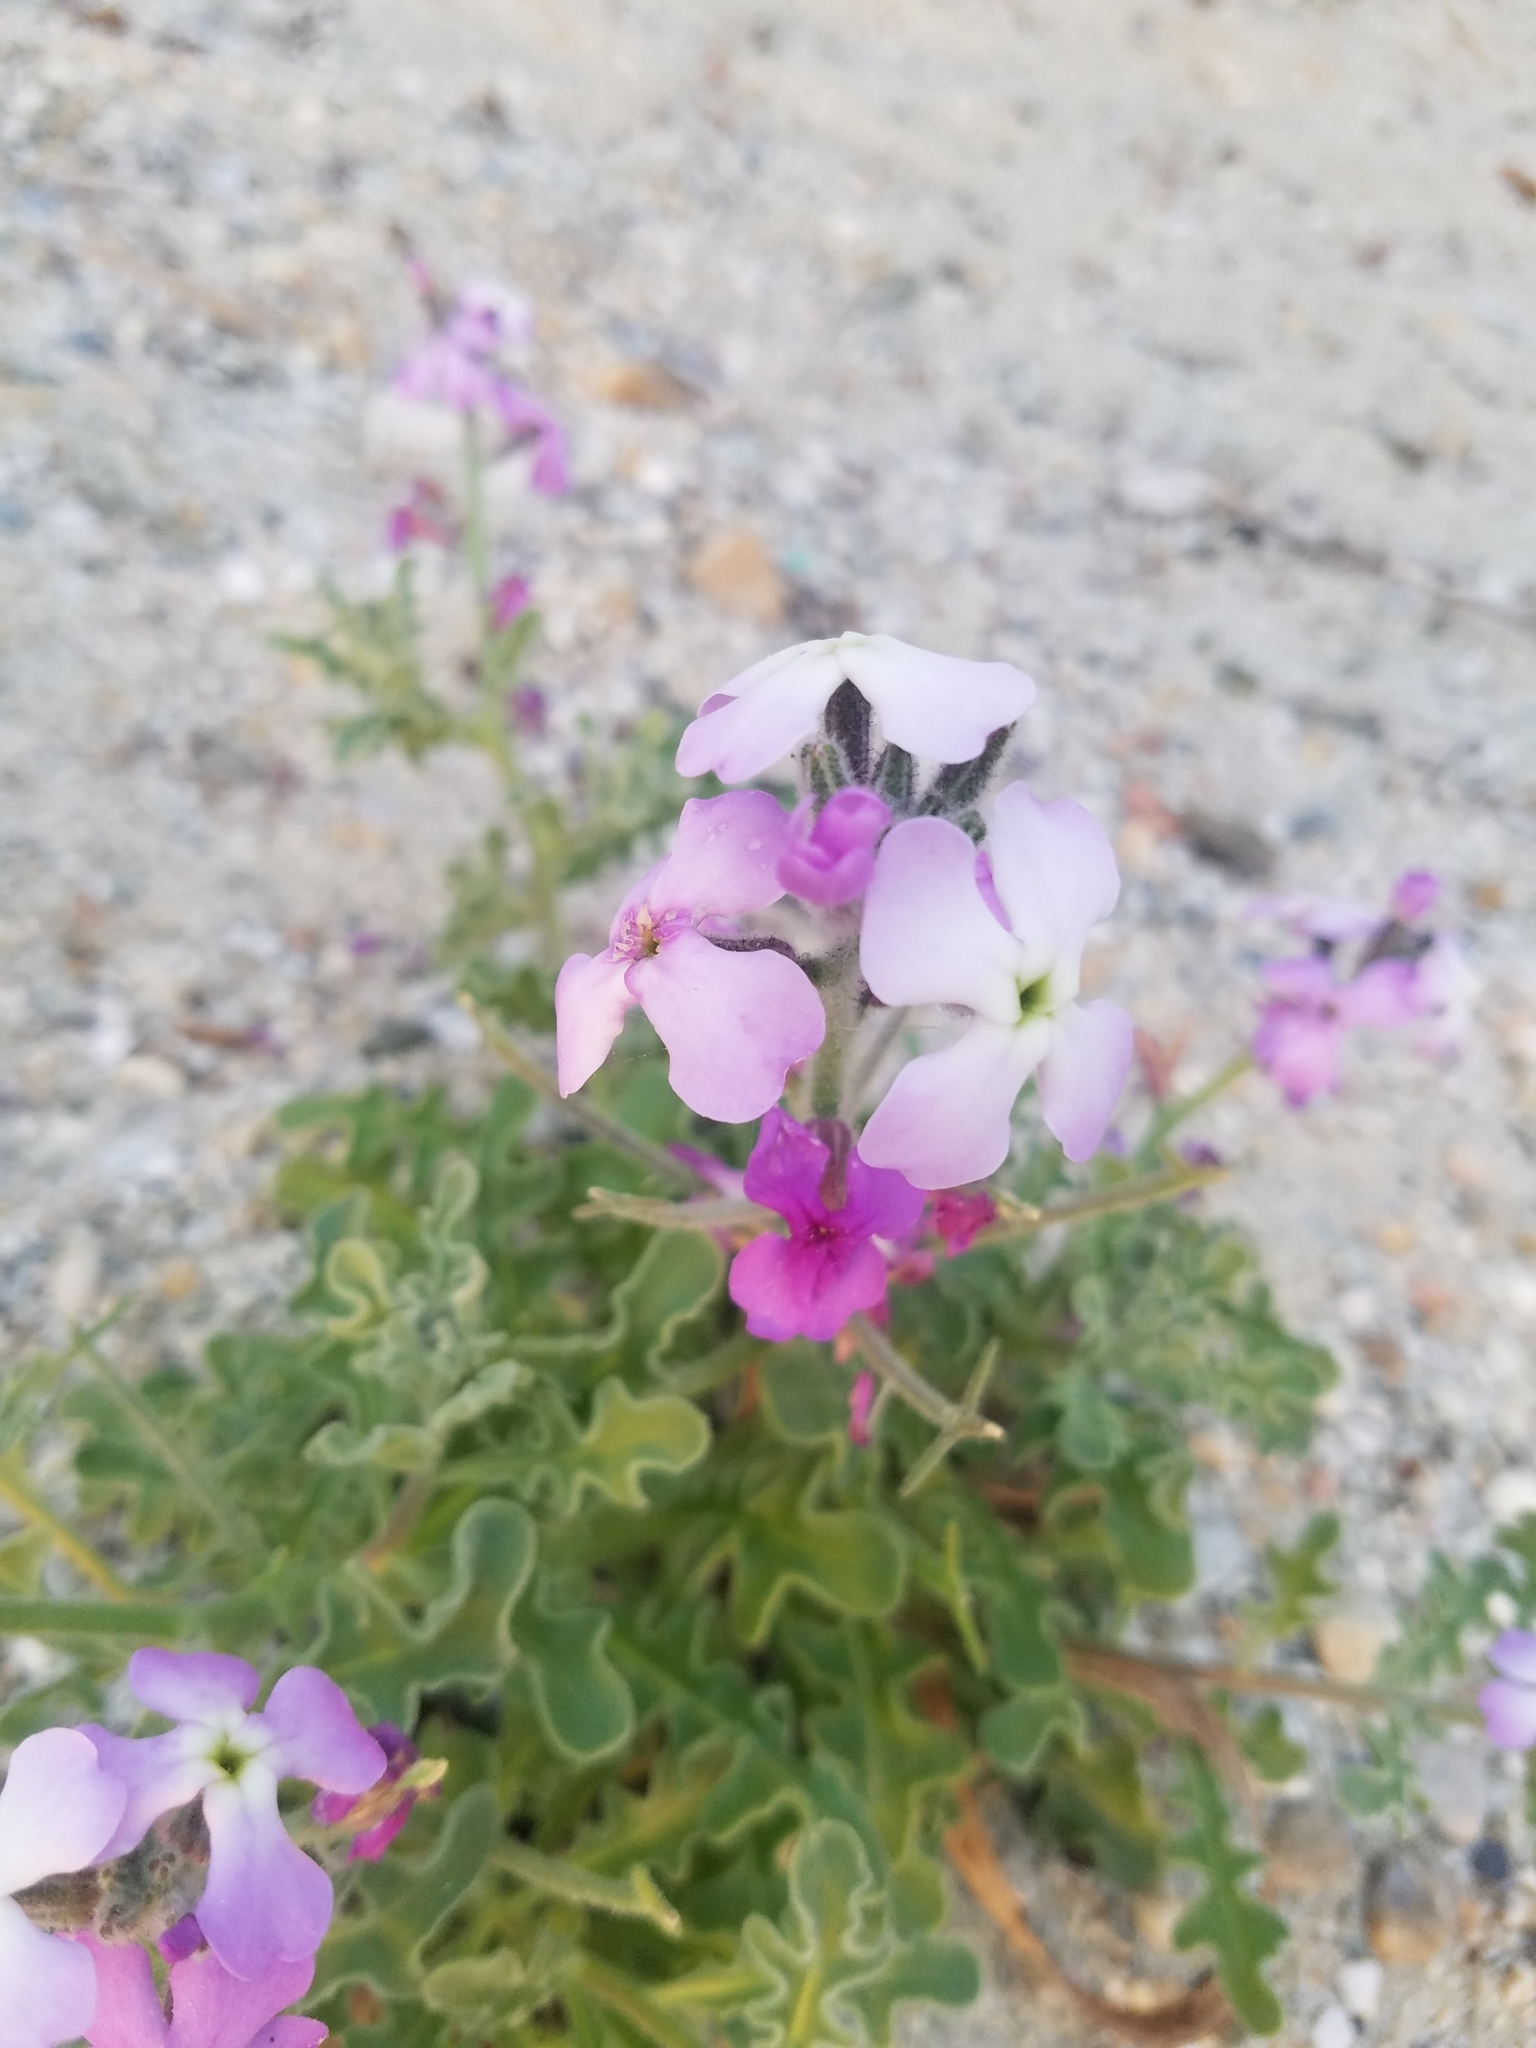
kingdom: Plantae
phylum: Tracheophyta
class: Magnoliopsida
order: Brassicales
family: Brassicaceae
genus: Matthiola
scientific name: Matthiola tricuspidata
